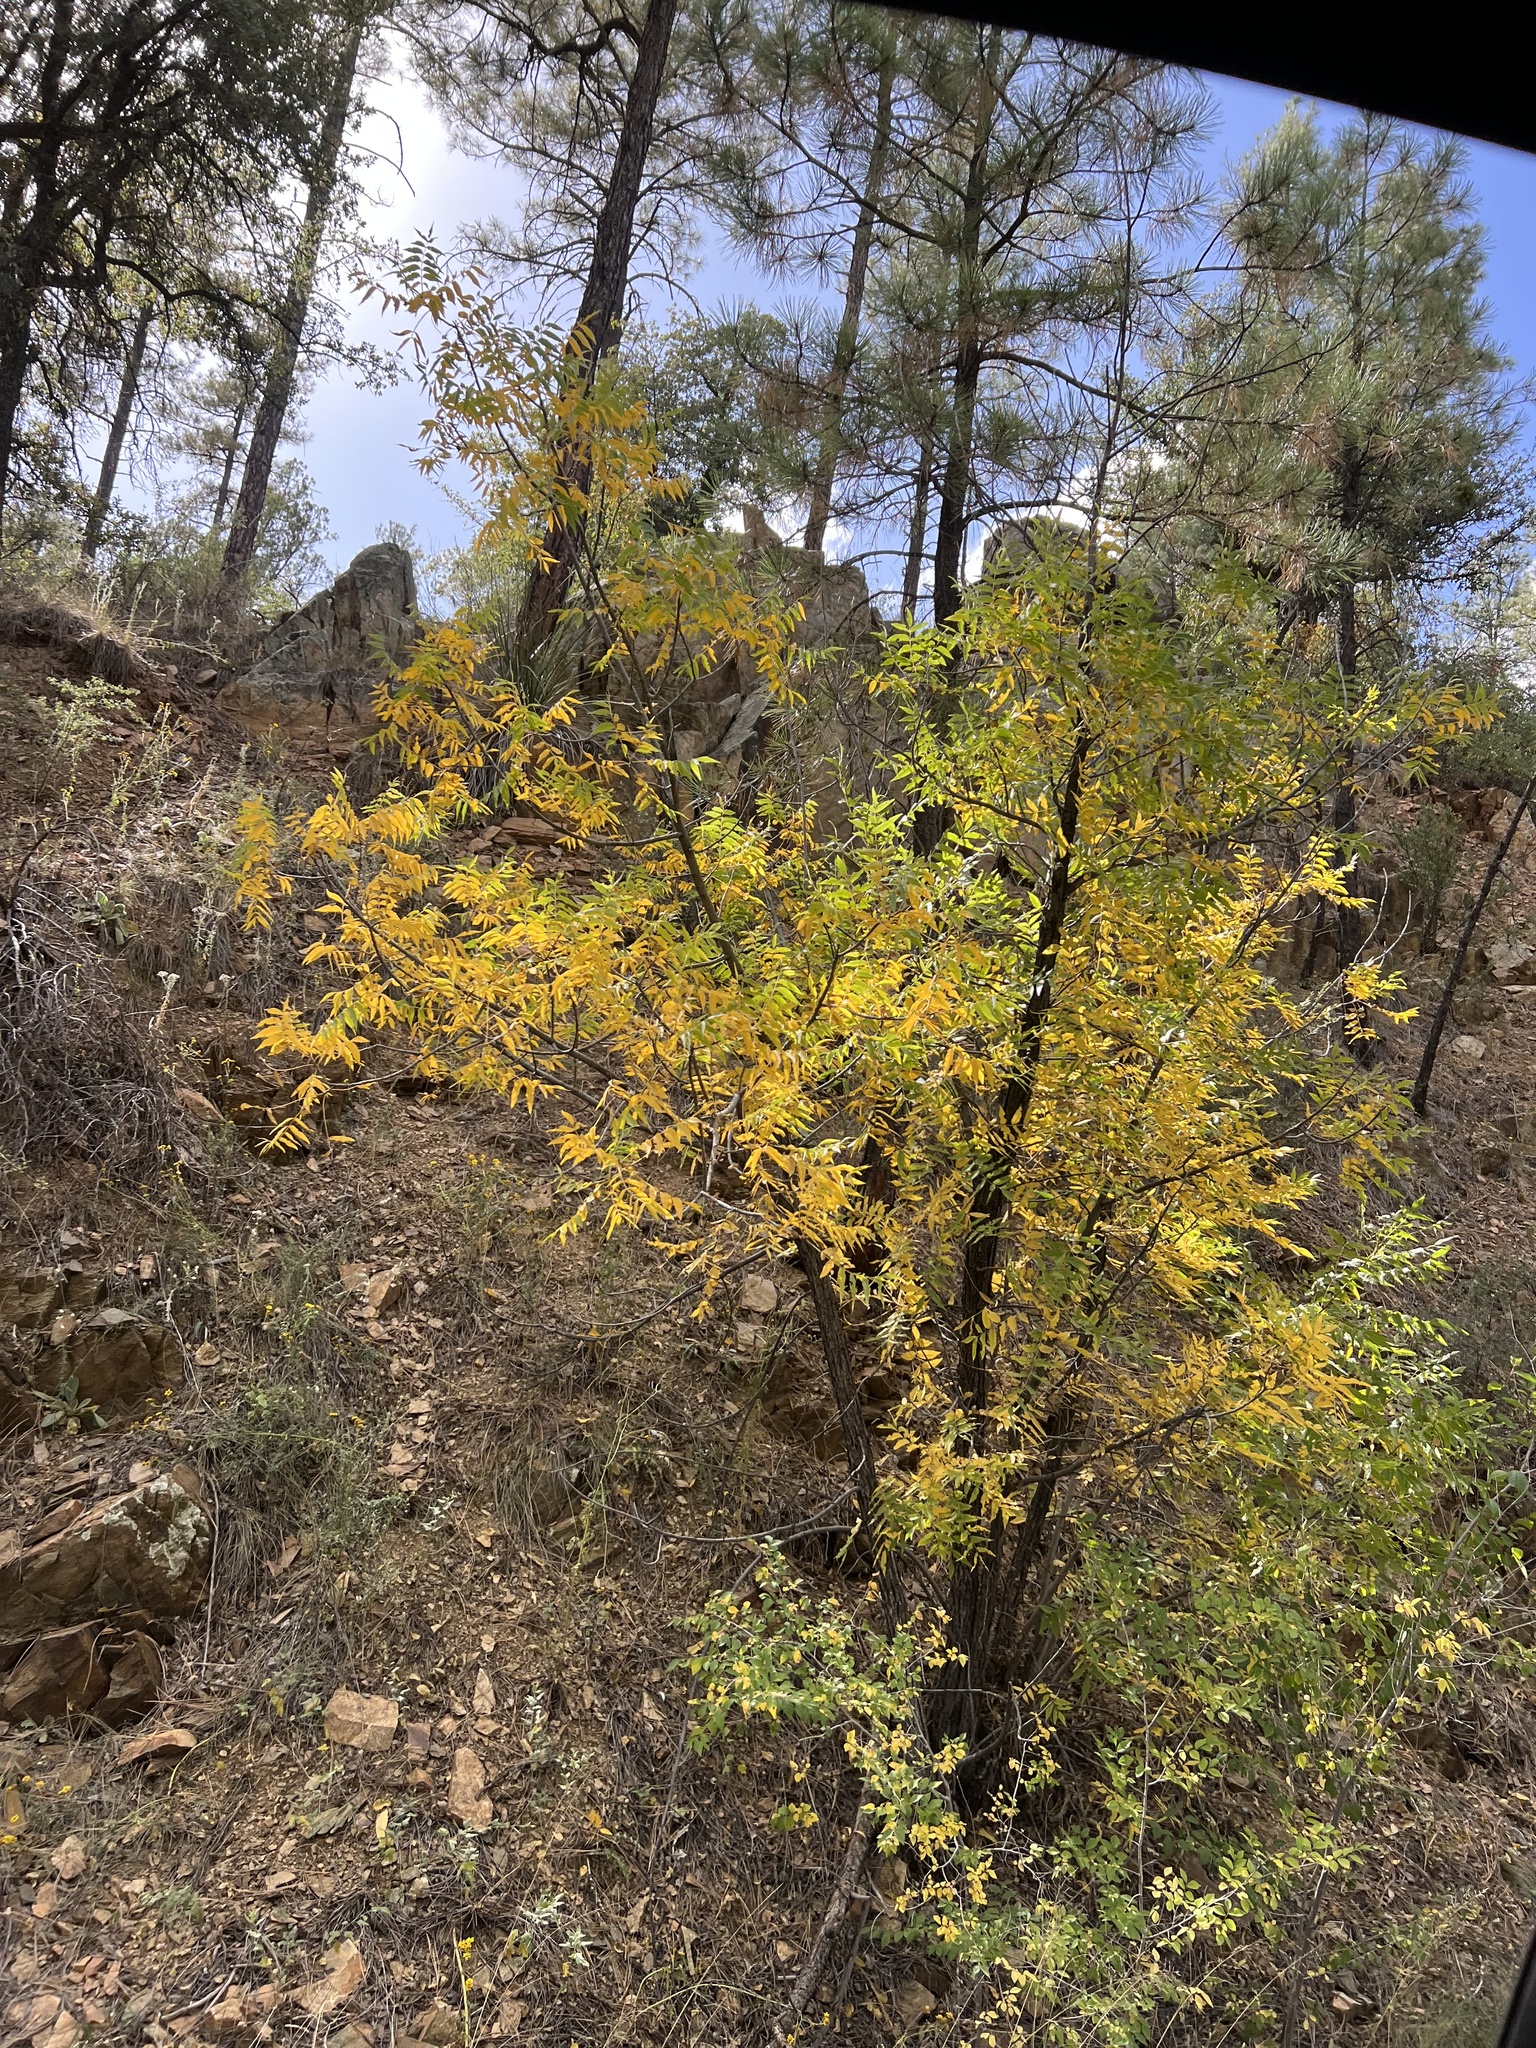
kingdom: Plantae
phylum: Tracheophyta
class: Magnoliopsida
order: Fagales
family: Juglandaceae
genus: Juglans
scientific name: Juglans major
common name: Arizona walnut
